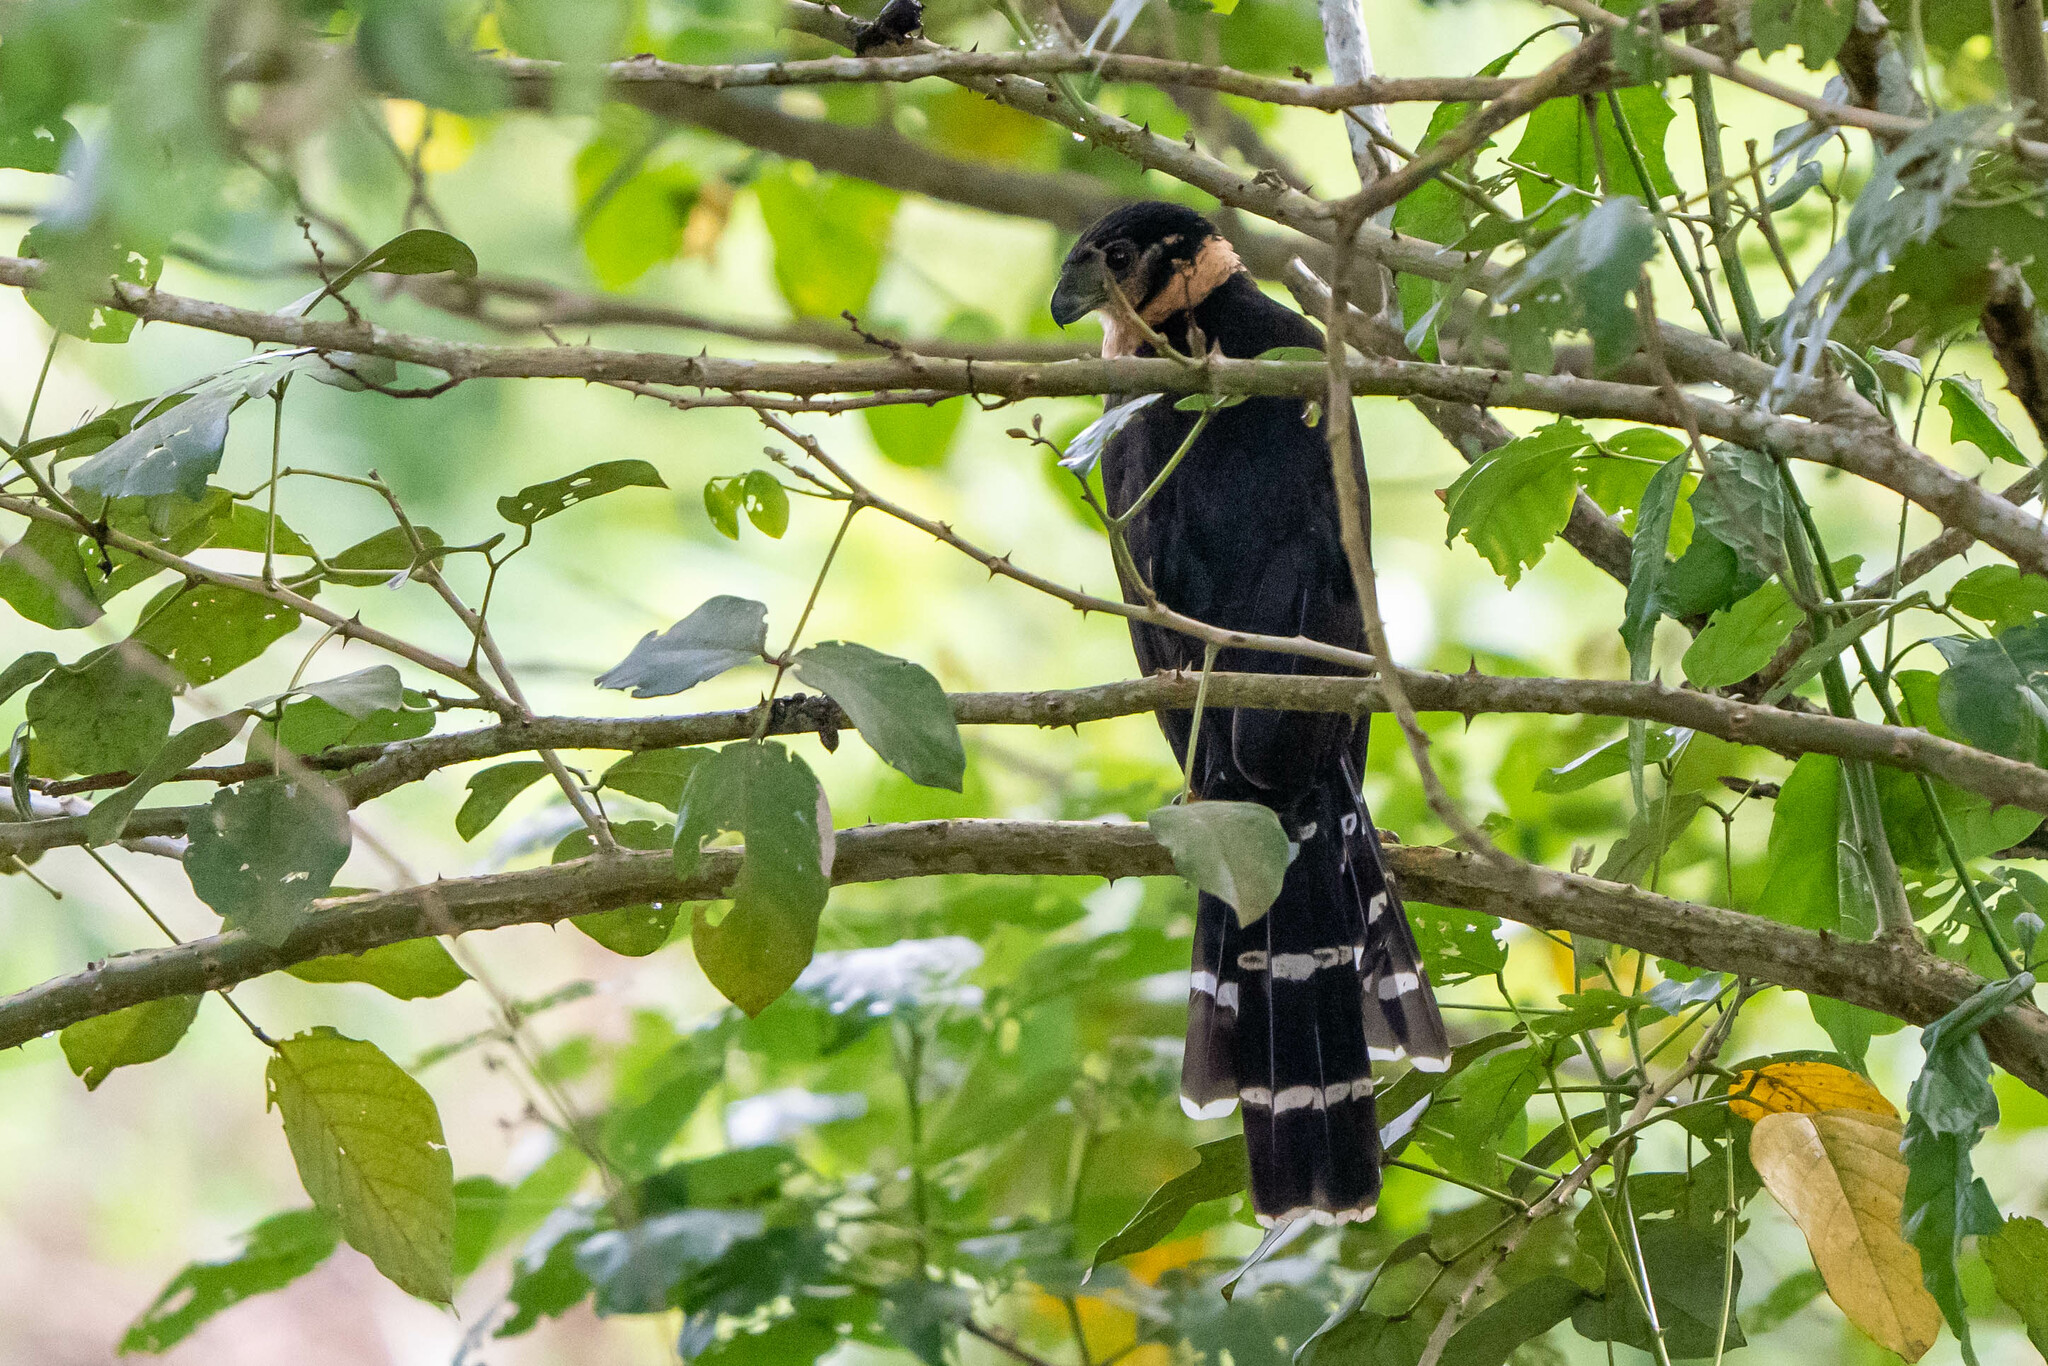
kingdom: Animalia
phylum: Chordata
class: Aves
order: Falconiformes
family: Falconidae
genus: Micrastur
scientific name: Micrastur semitorquatus
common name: Collared forest-falcon
